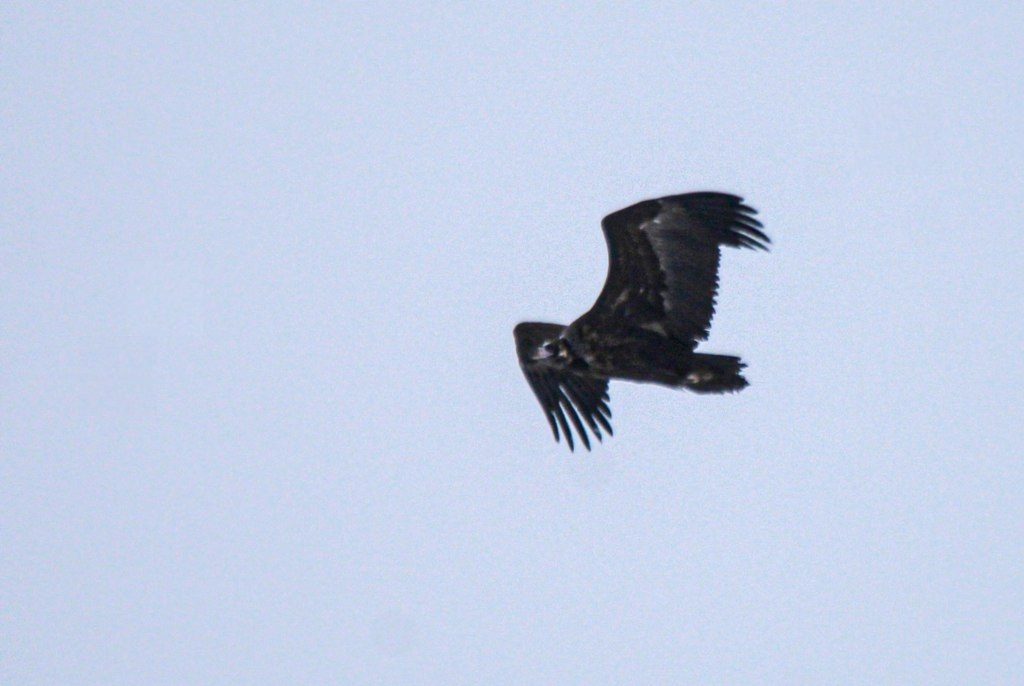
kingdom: Animalia
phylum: Chordata
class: Aves
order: Accipitriformes
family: Accipitridae
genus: Aegypius
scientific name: Aegypius monachus
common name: Cinereous vulture
